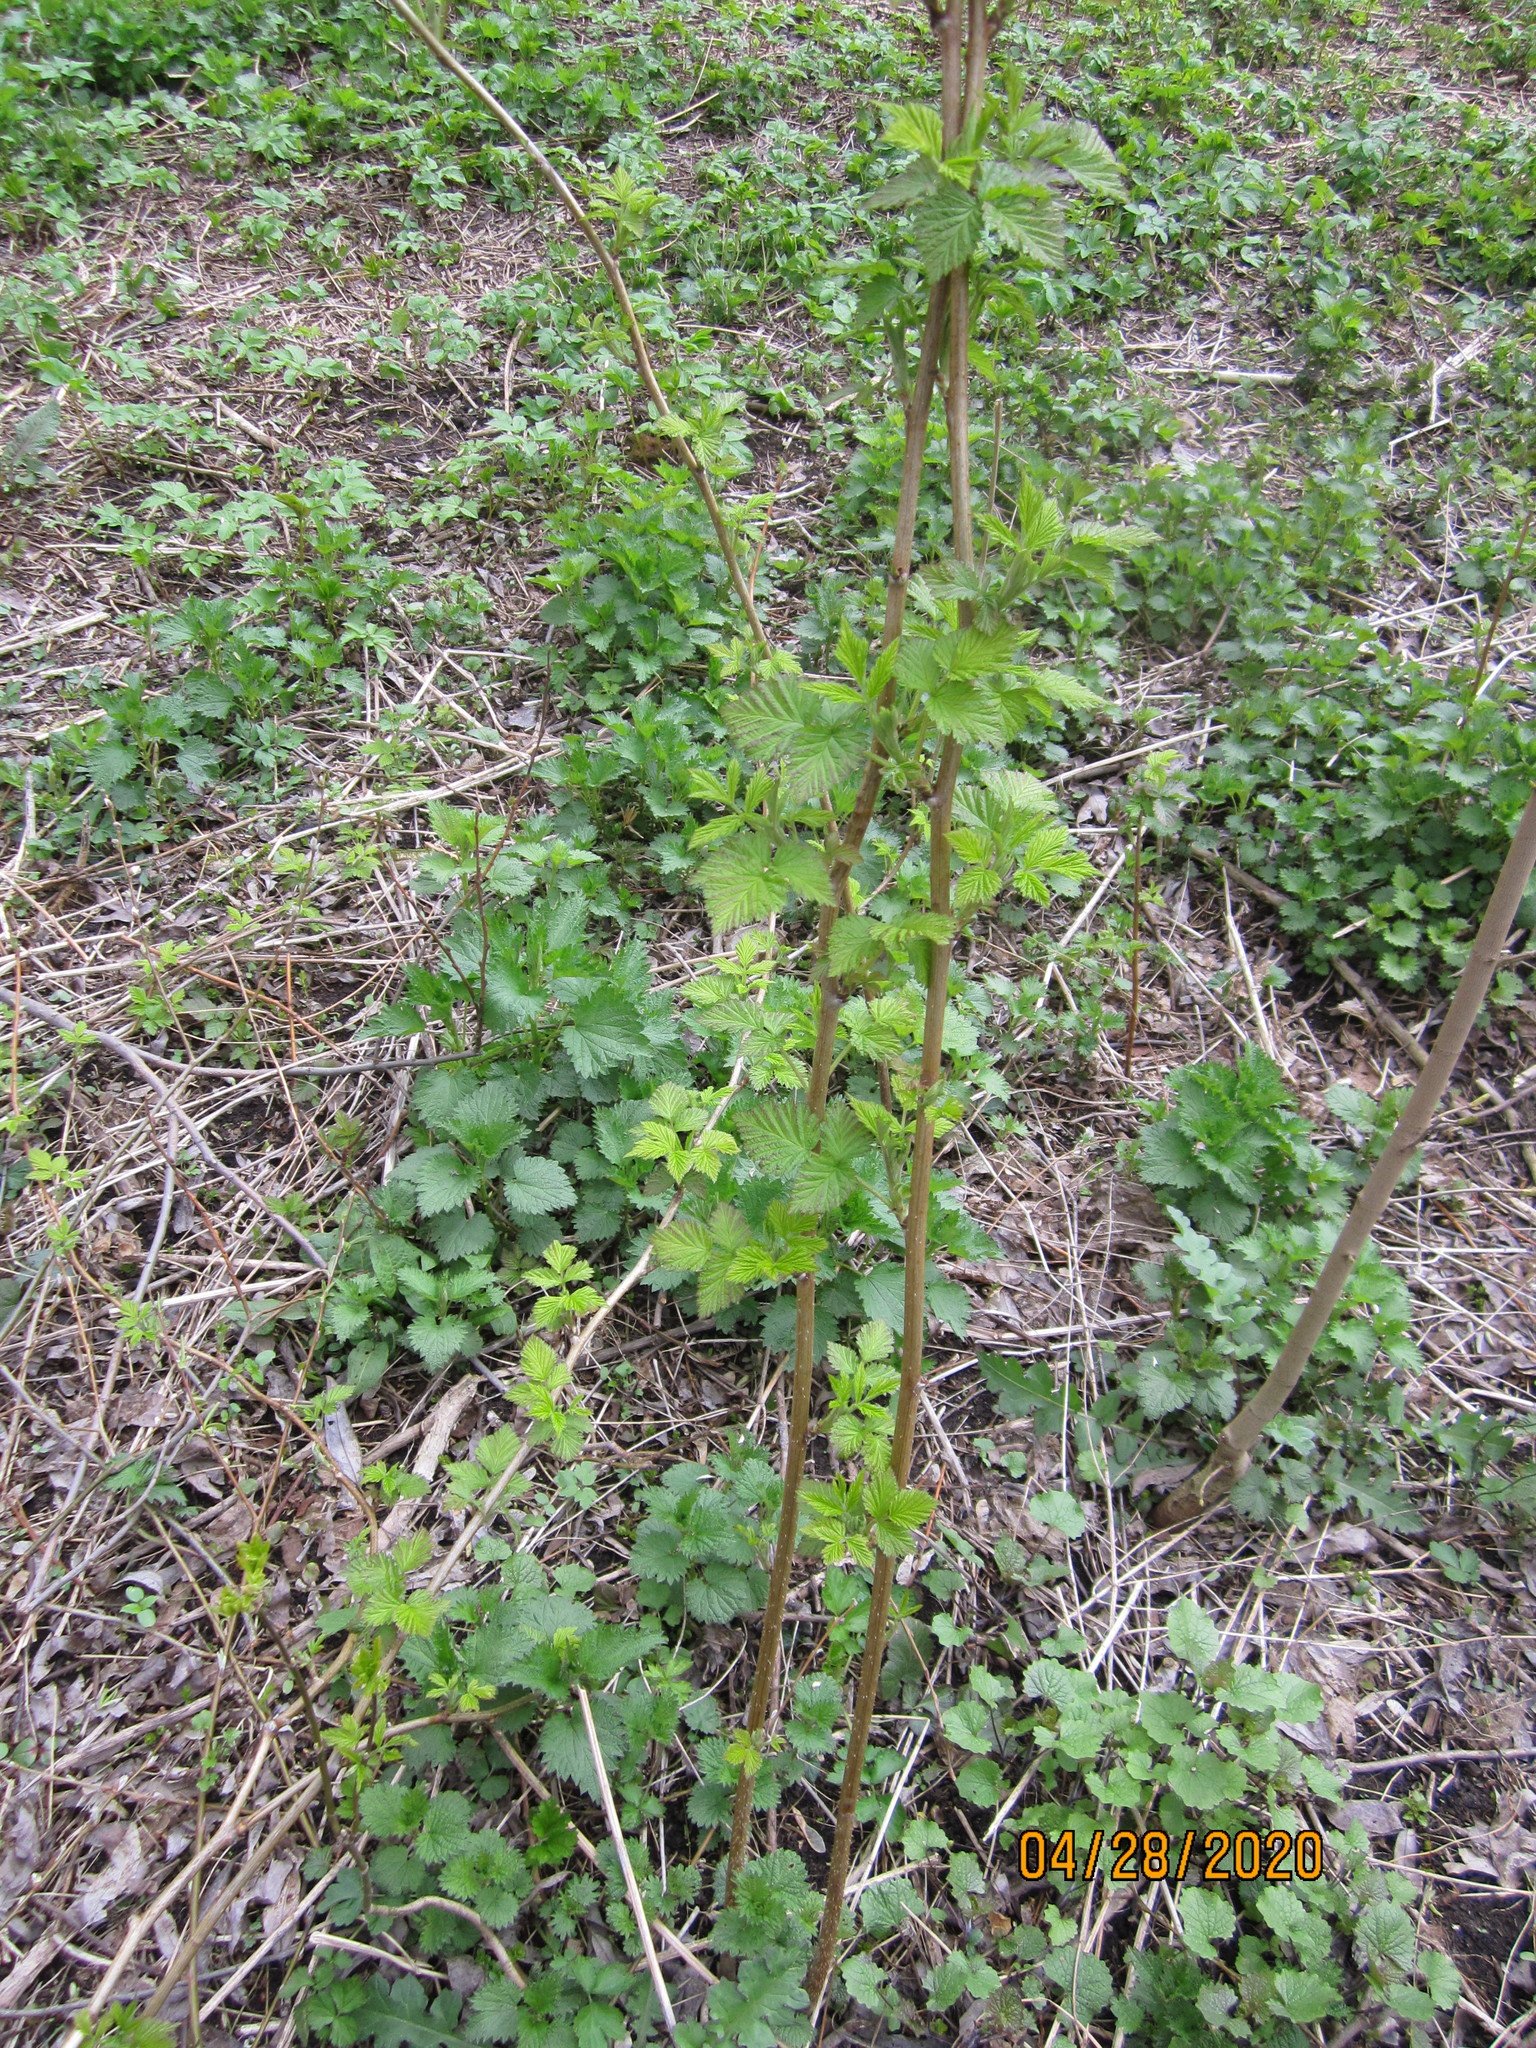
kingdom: Plantae
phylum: Tracheophyta
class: Magnoliopsida
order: Rosales
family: Rosaceae
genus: Rubus
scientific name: Rubus idaeus
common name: Raspberry
